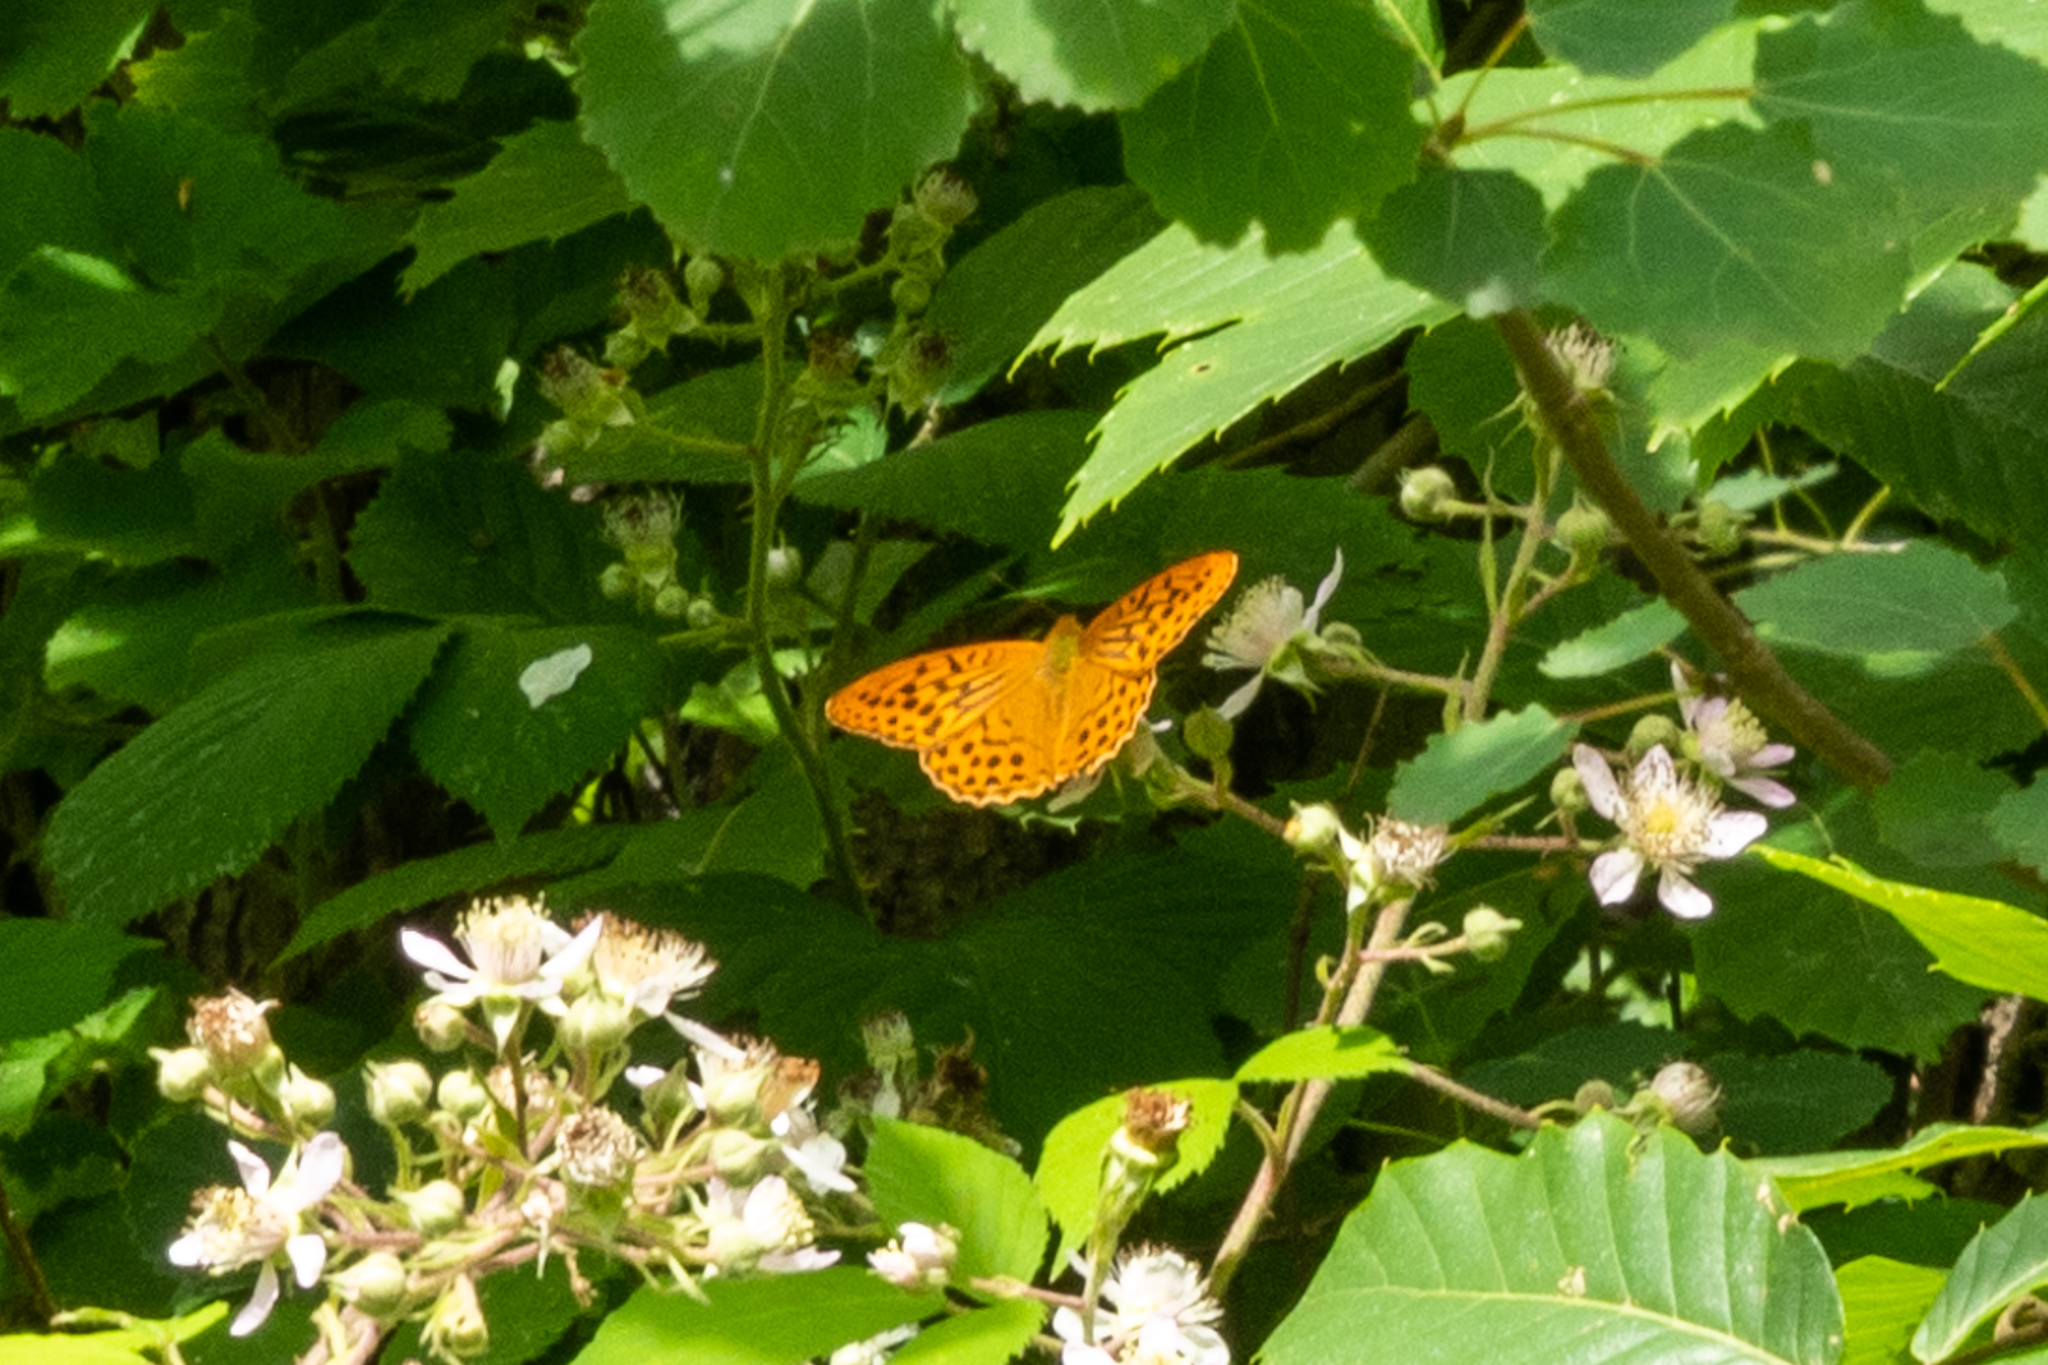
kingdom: Animalia
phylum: Arthropoda
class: Insecta
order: Lepidoptera
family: Nymphalidae
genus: Argynnis
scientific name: Argynnis paphia
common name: Silver-washed fritillary
